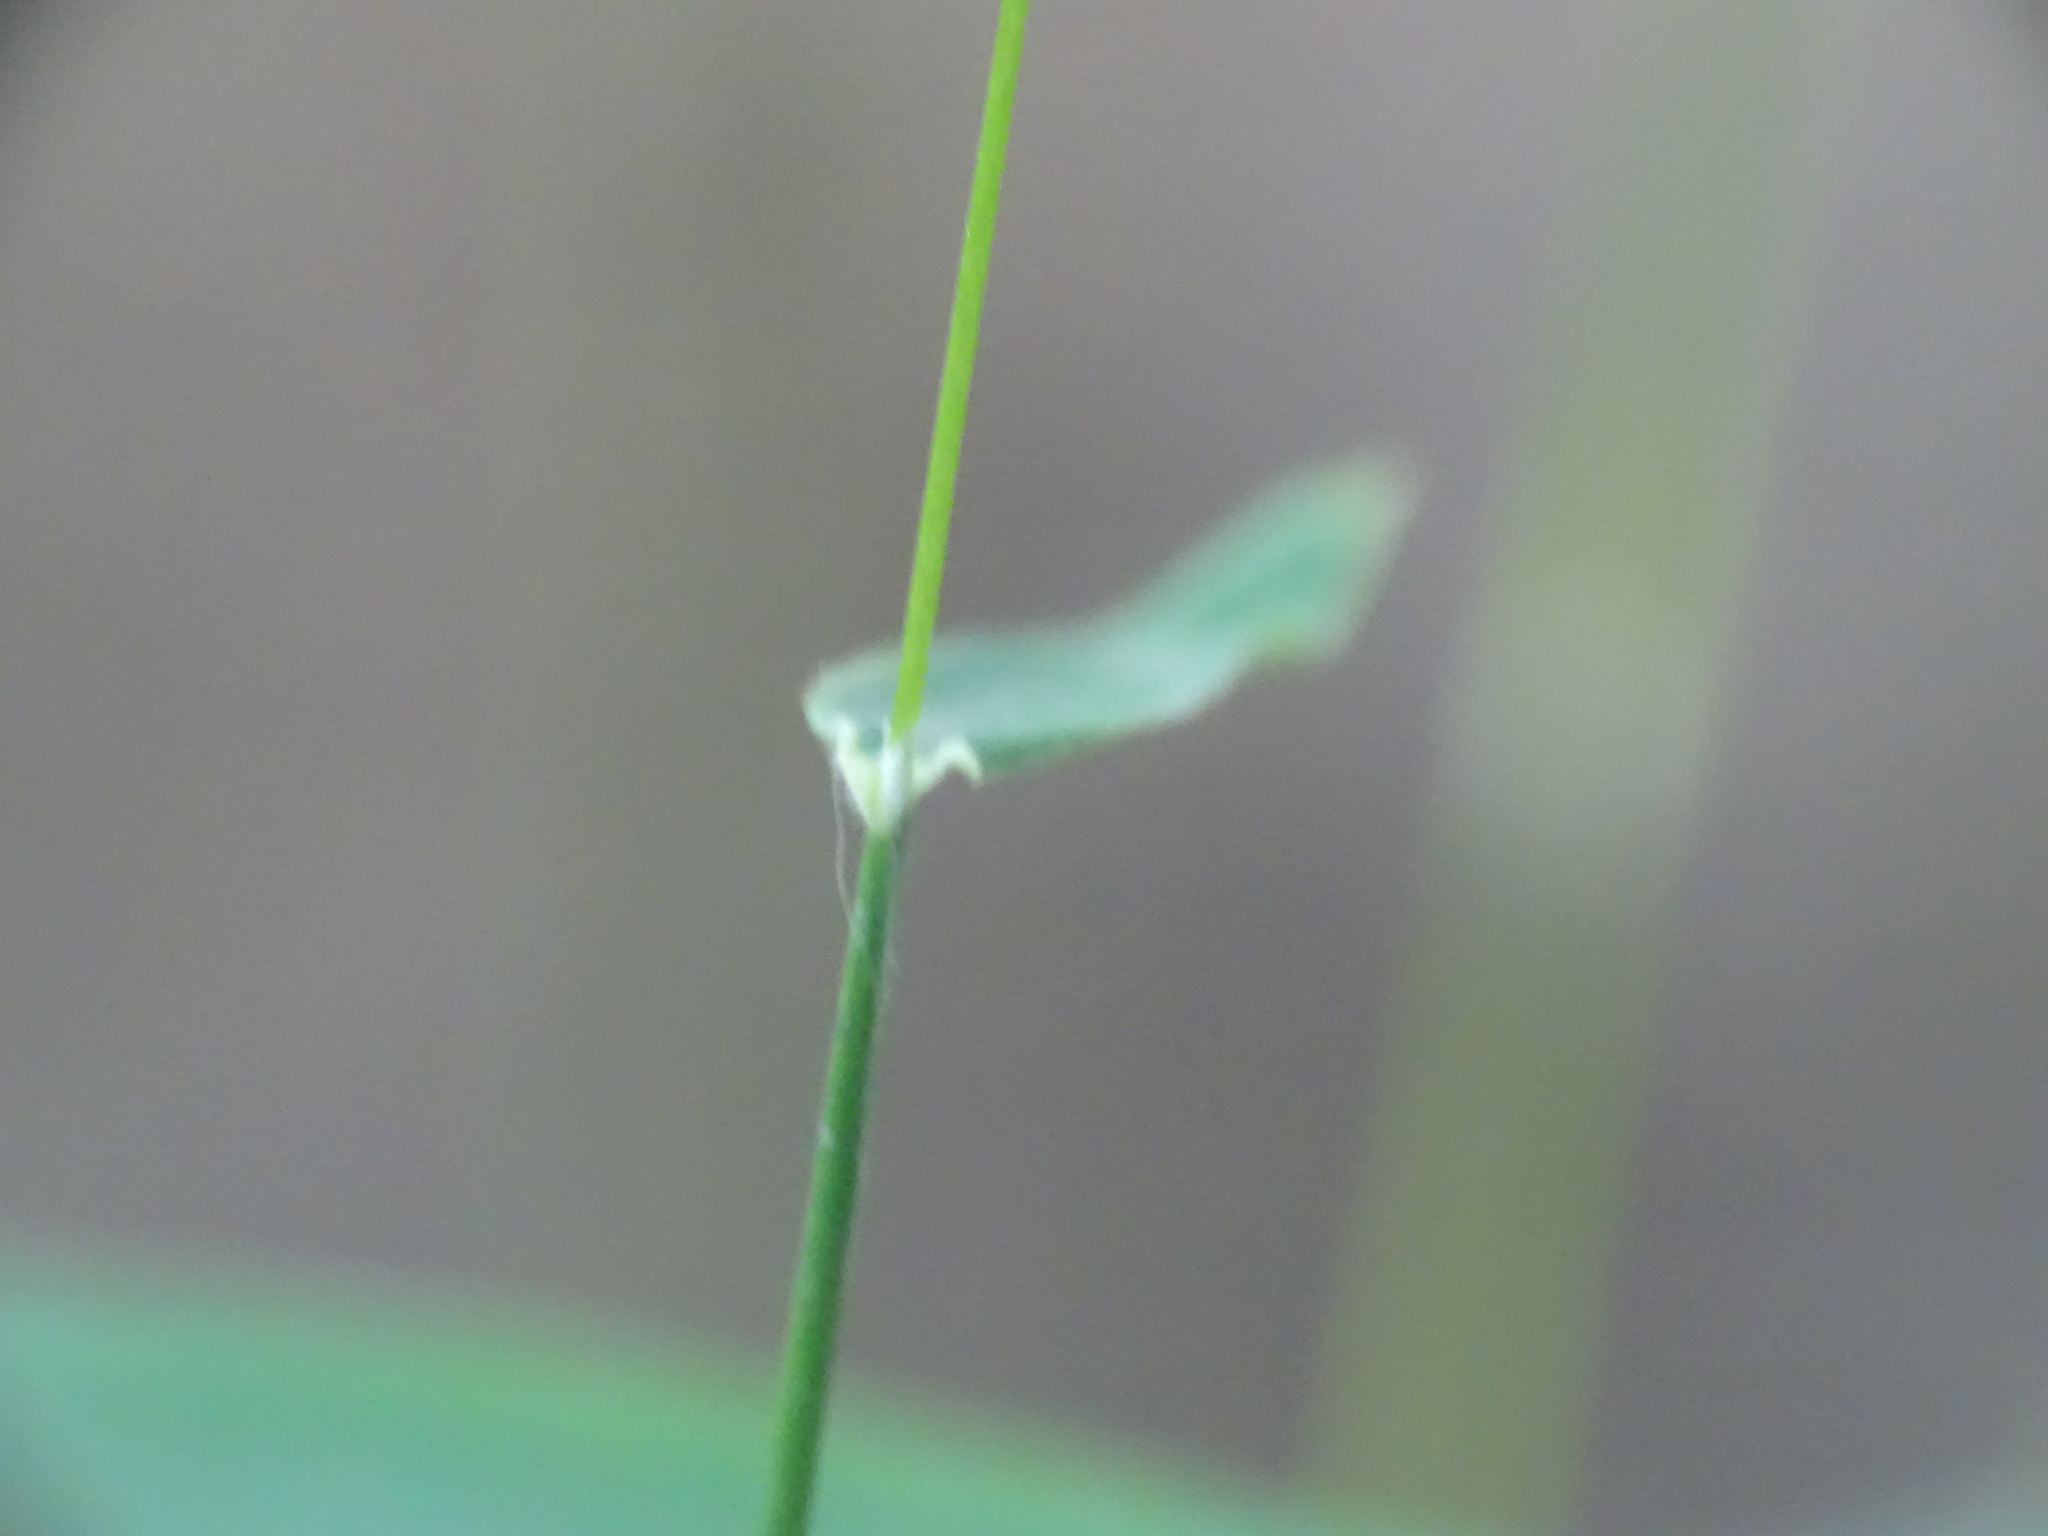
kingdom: Plantae
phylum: Tracheophyta
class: Liliopsida
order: Poales
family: Poaceae
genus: Brachyelytrum
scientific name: Brachyelytrum erectum
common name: Bearded shorthusk
